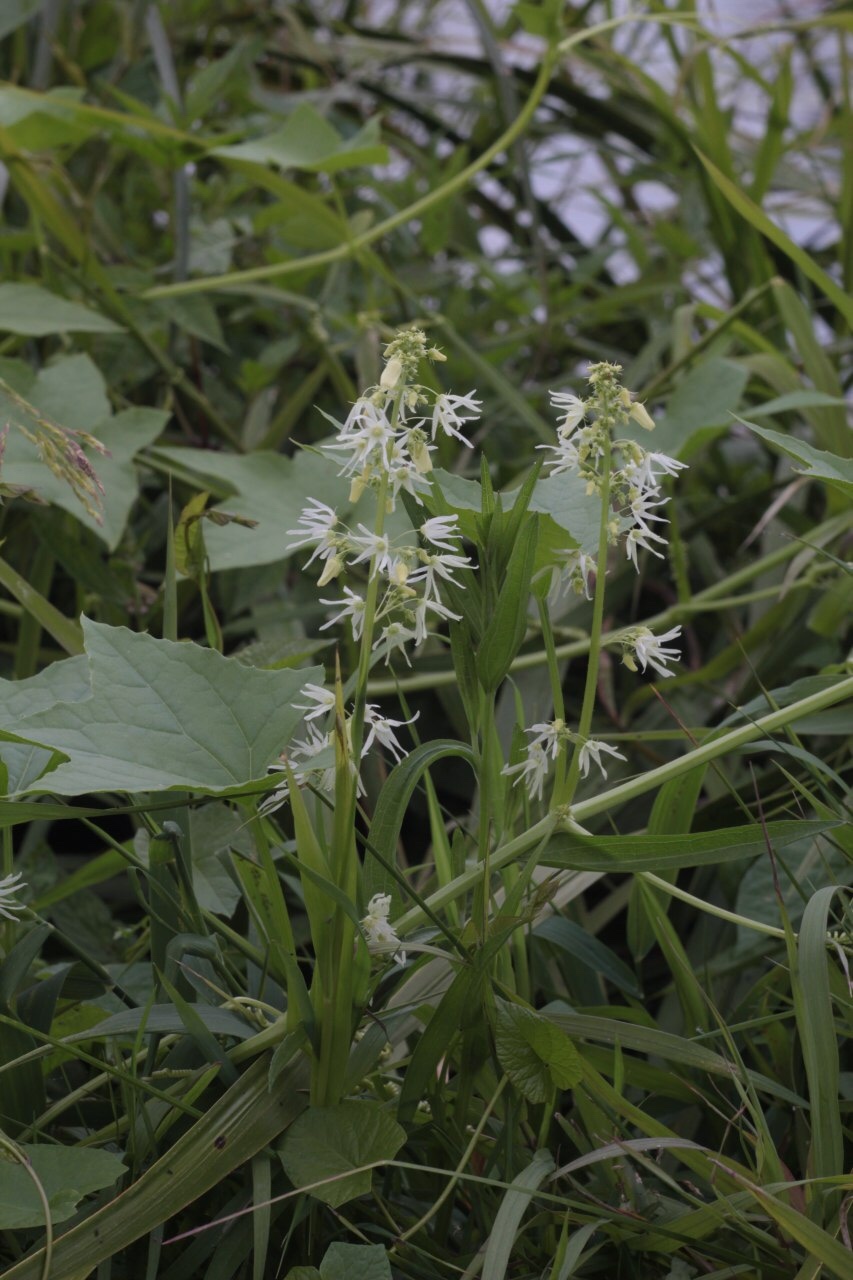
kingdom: Plantae
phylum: Tracheophyta
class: Magnoliopsida
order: Cucurbitales
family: Cucurbitaceae
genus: Echinocystis
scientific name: Echinocystis lobata
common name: Wild cucumber
